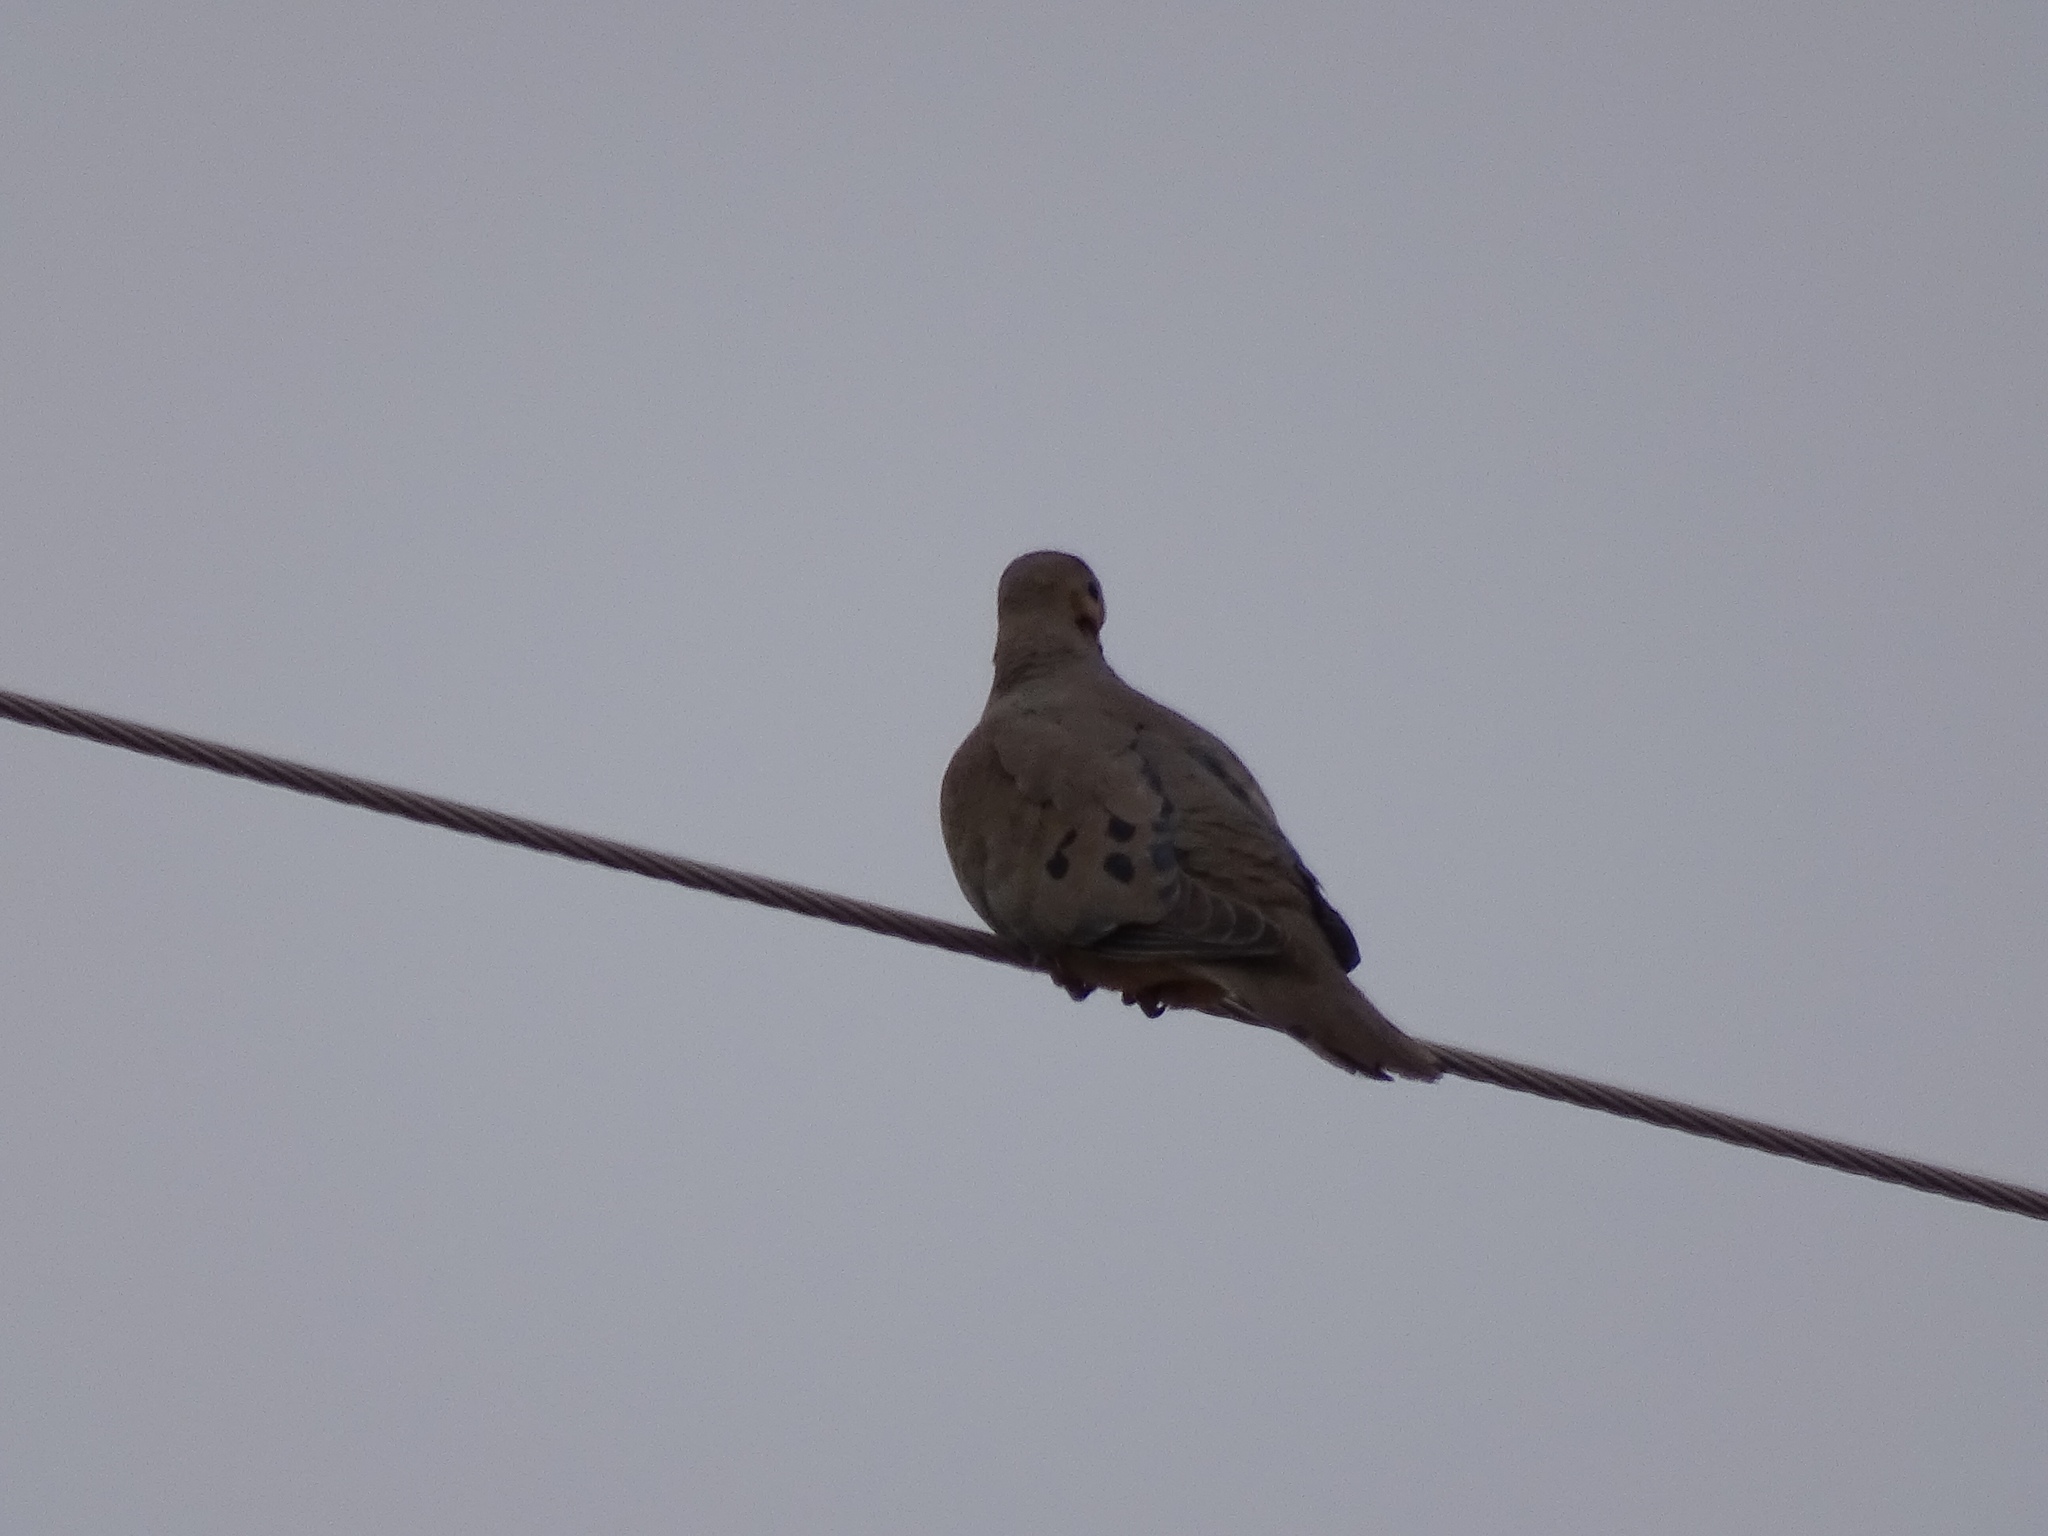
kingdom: Animalia
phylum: Chordata
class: Aves
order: Columbiformes
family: Columbidae
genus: Zenaida
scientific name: Zenaida macroura
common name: Mourning dove
